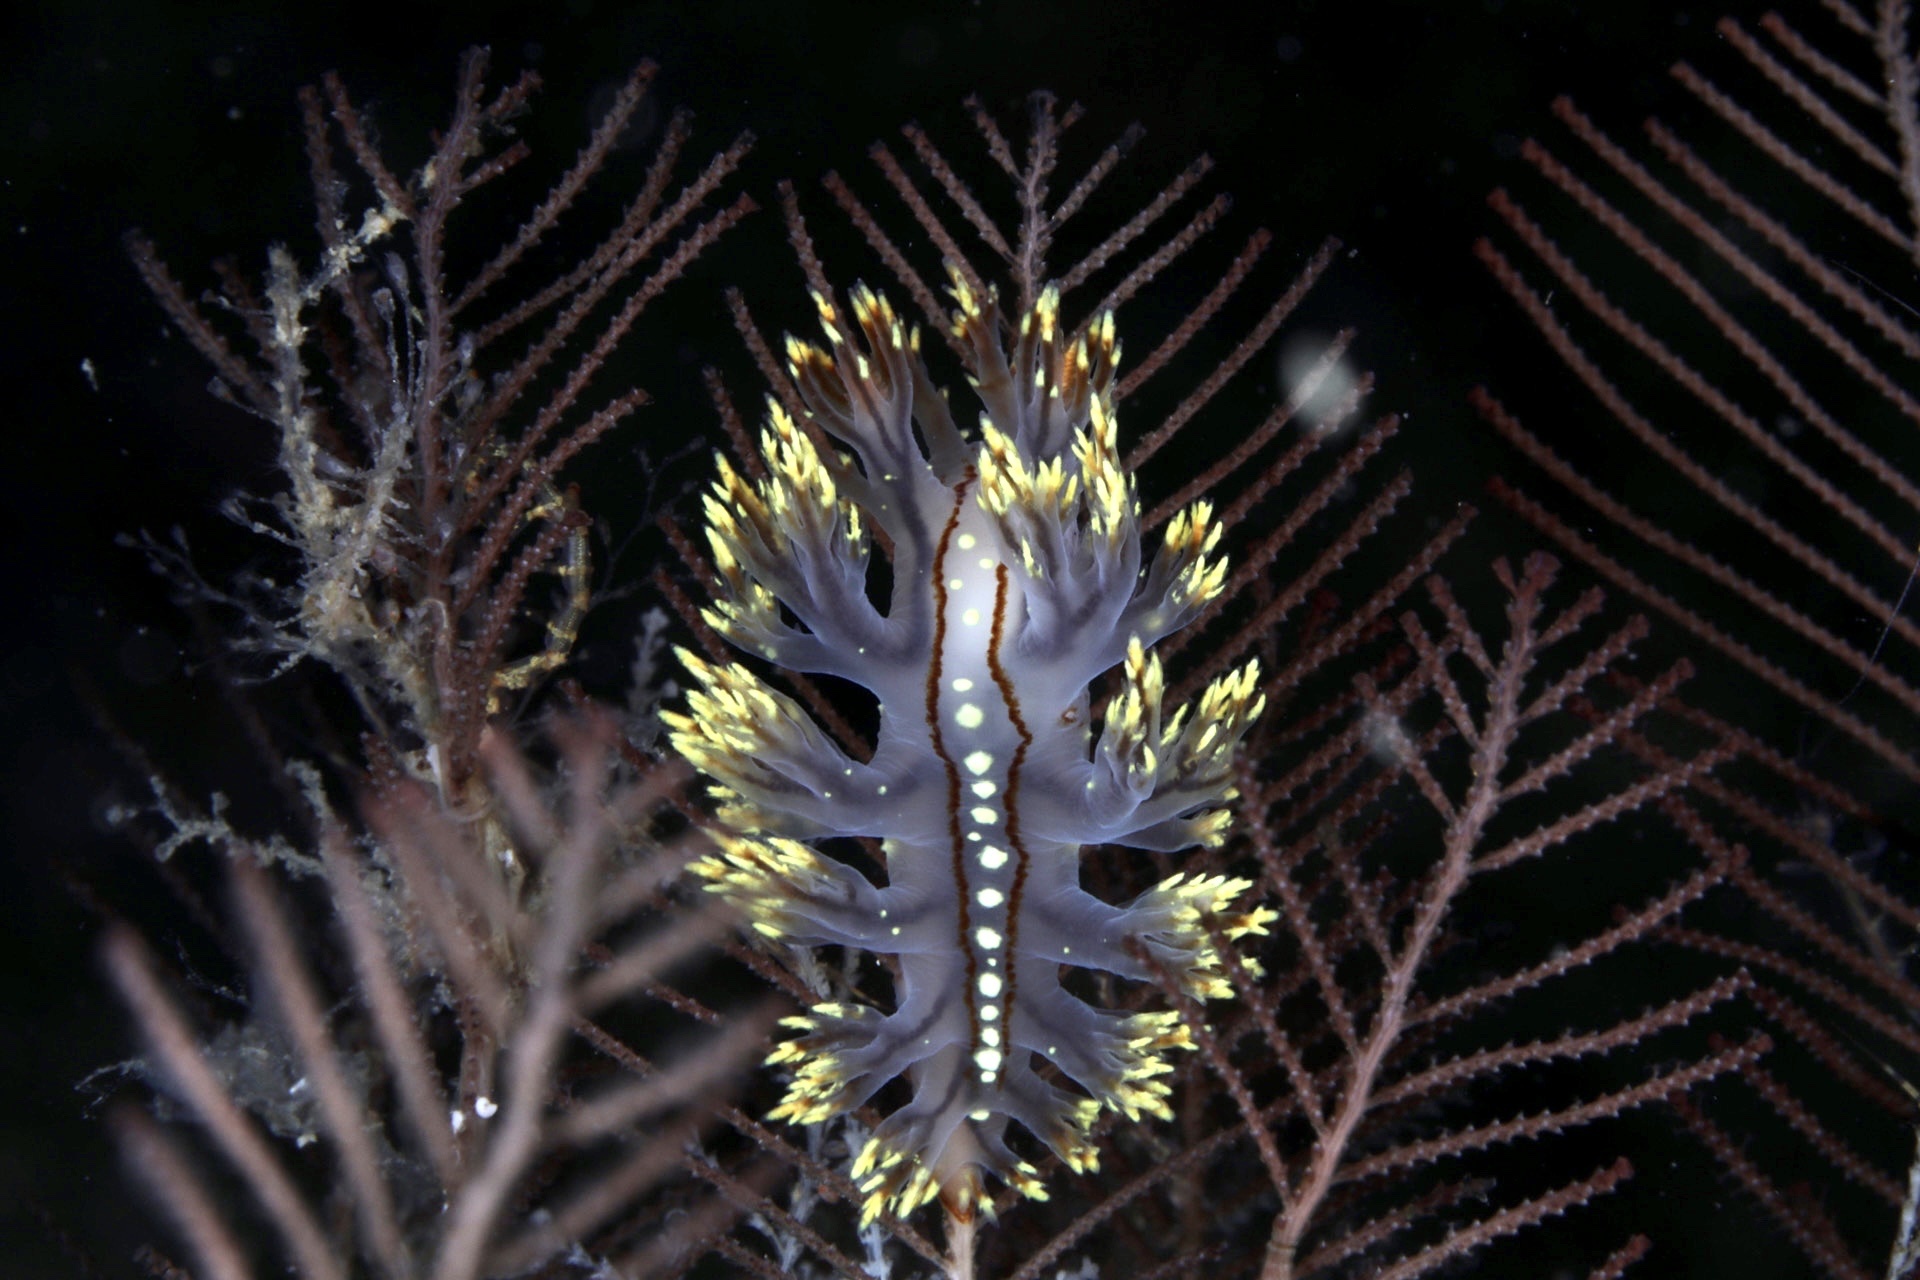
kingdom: Animalia
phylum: Mollusca
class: Gastropoda
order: Nudibranchia
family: Dendronotidae
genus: Dendronotus
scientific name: Dendronotus yrjargul
